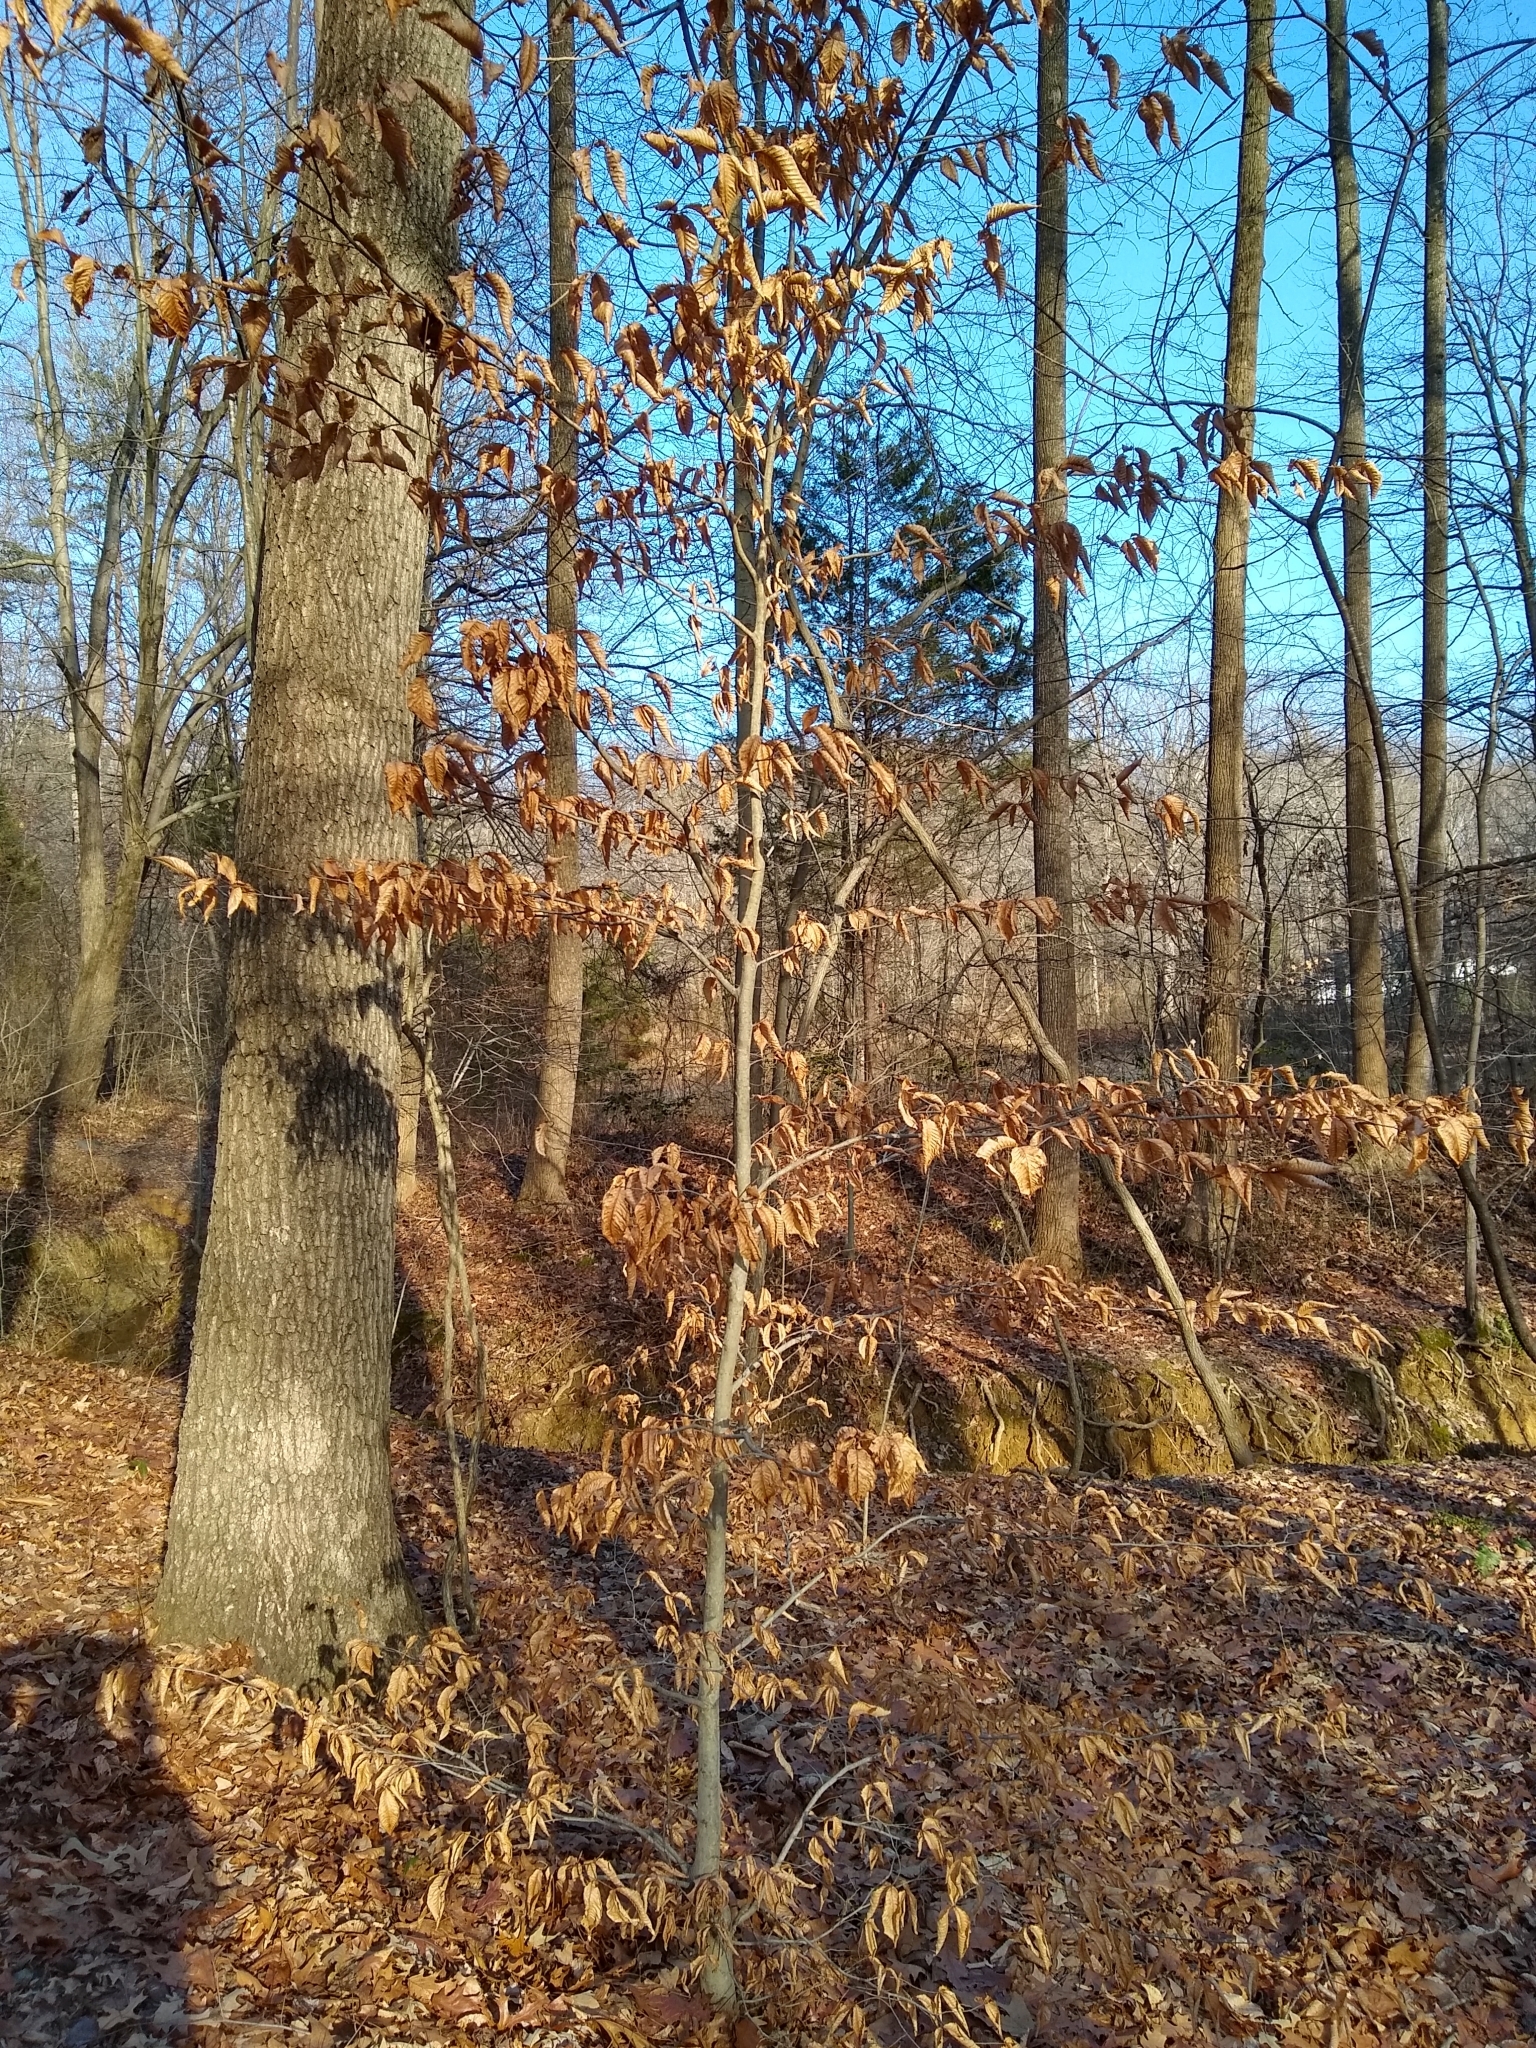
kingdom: Plantae
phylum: Tracheophyta
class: Magnoliopsida
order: Fagales
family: Fagaceae
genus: Fagus
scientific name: Fagus grandifolia
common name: American beech
